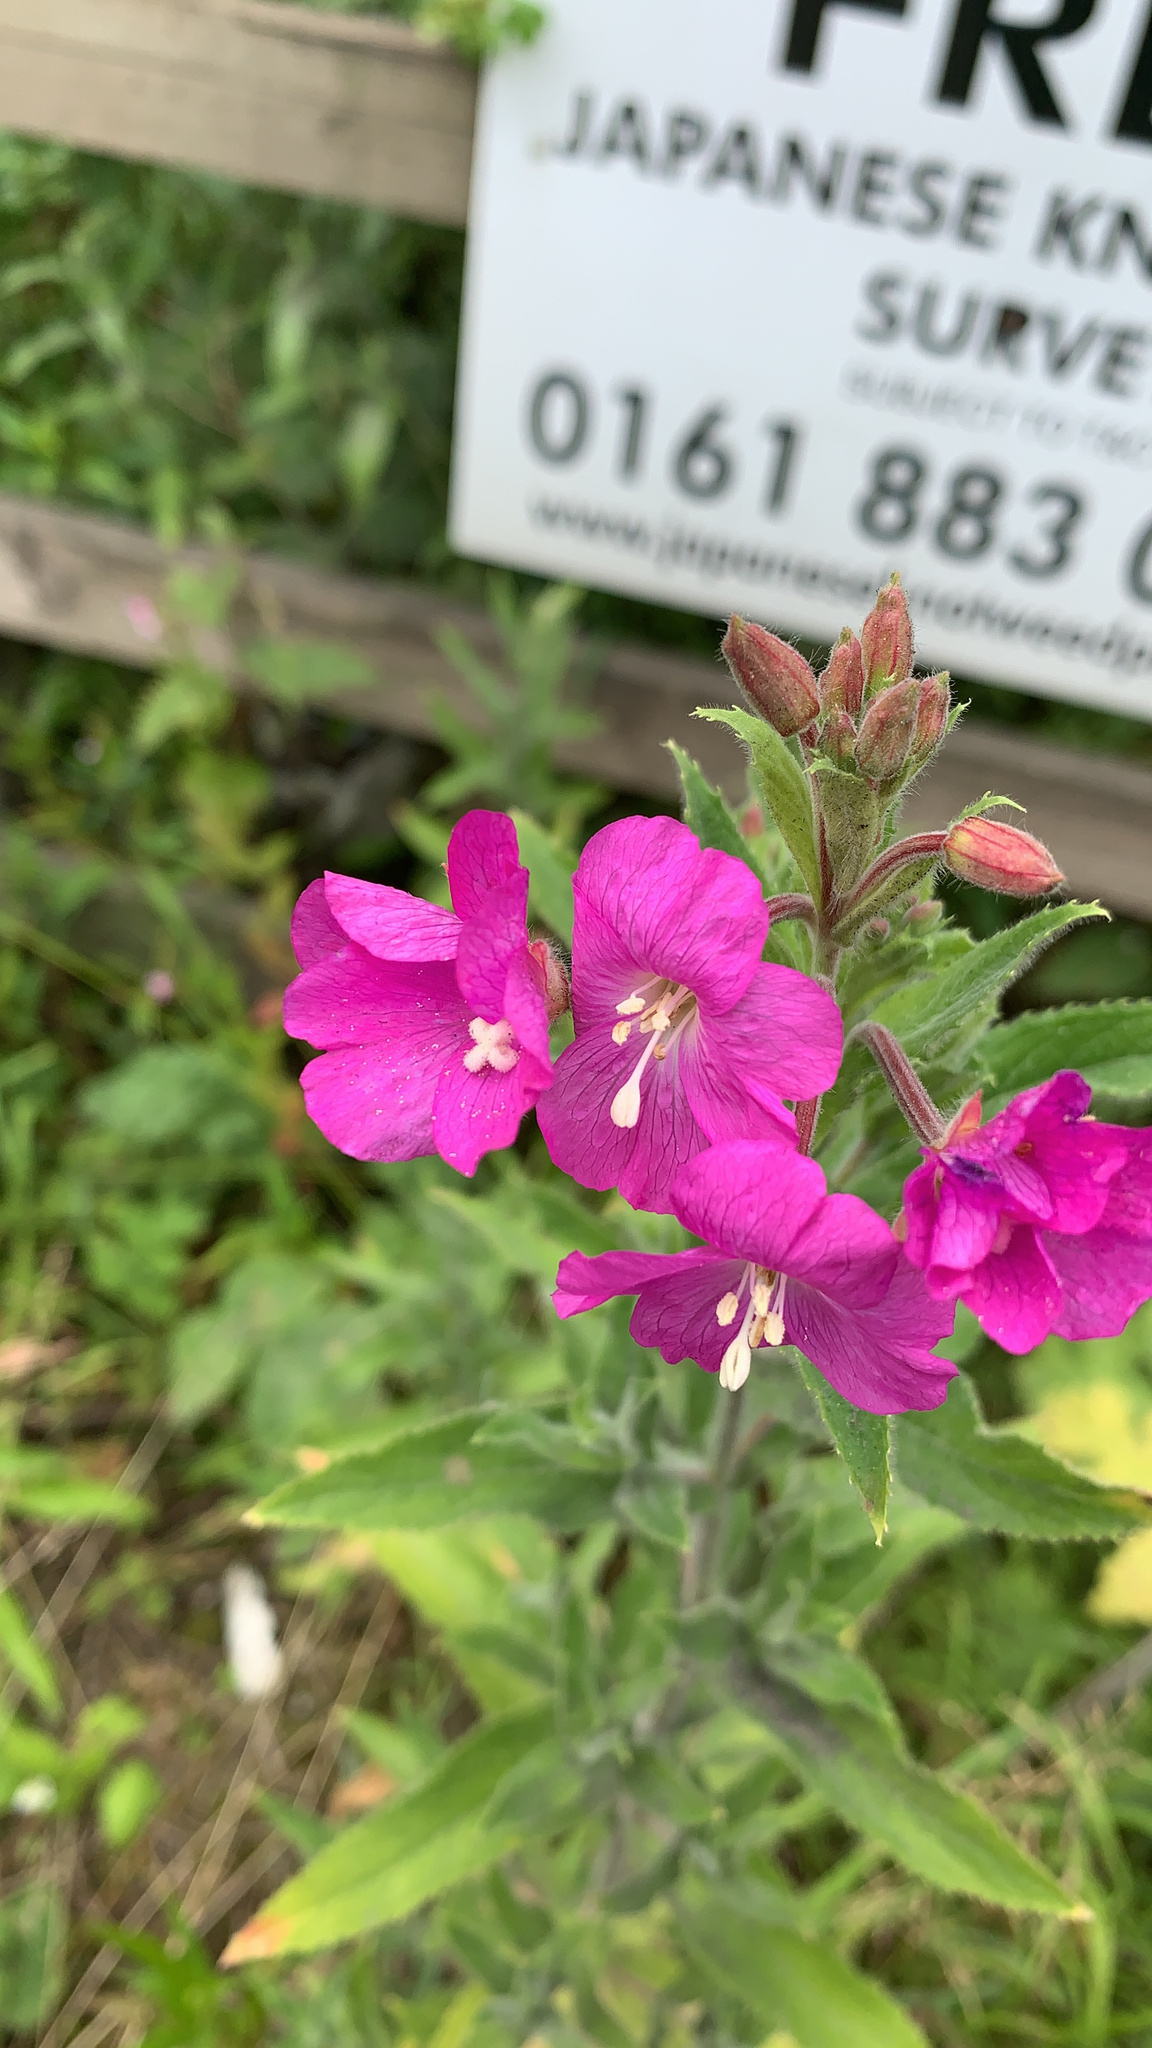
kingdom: Plantae
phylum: Tracheophyta
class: Magnoliopsida
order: Myrtales
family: Onagraceae
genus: Epilobium
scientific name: Epilobium hirsutum
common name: Great willowherb
